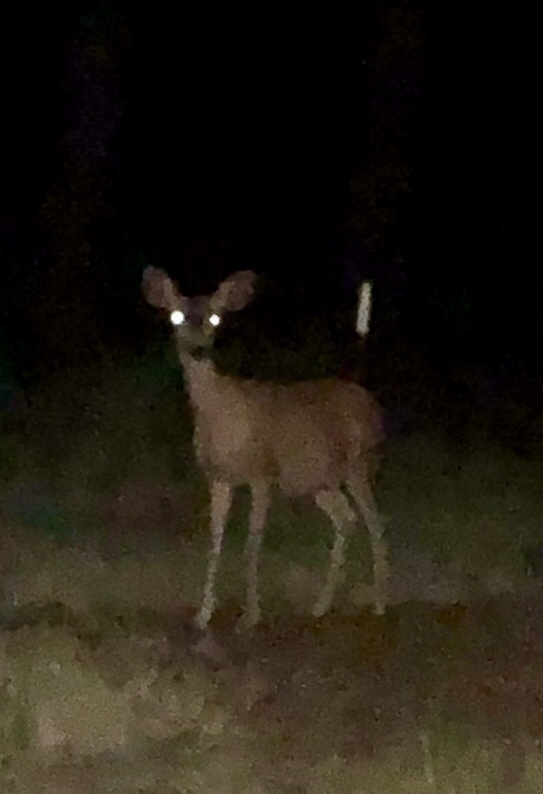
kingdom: Animalia
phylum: Chordata
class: Mammalia
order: Artiodactyla
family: Cervidae
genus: Odocoileus
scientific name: Odocoileus hemionus
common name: Mule deer
